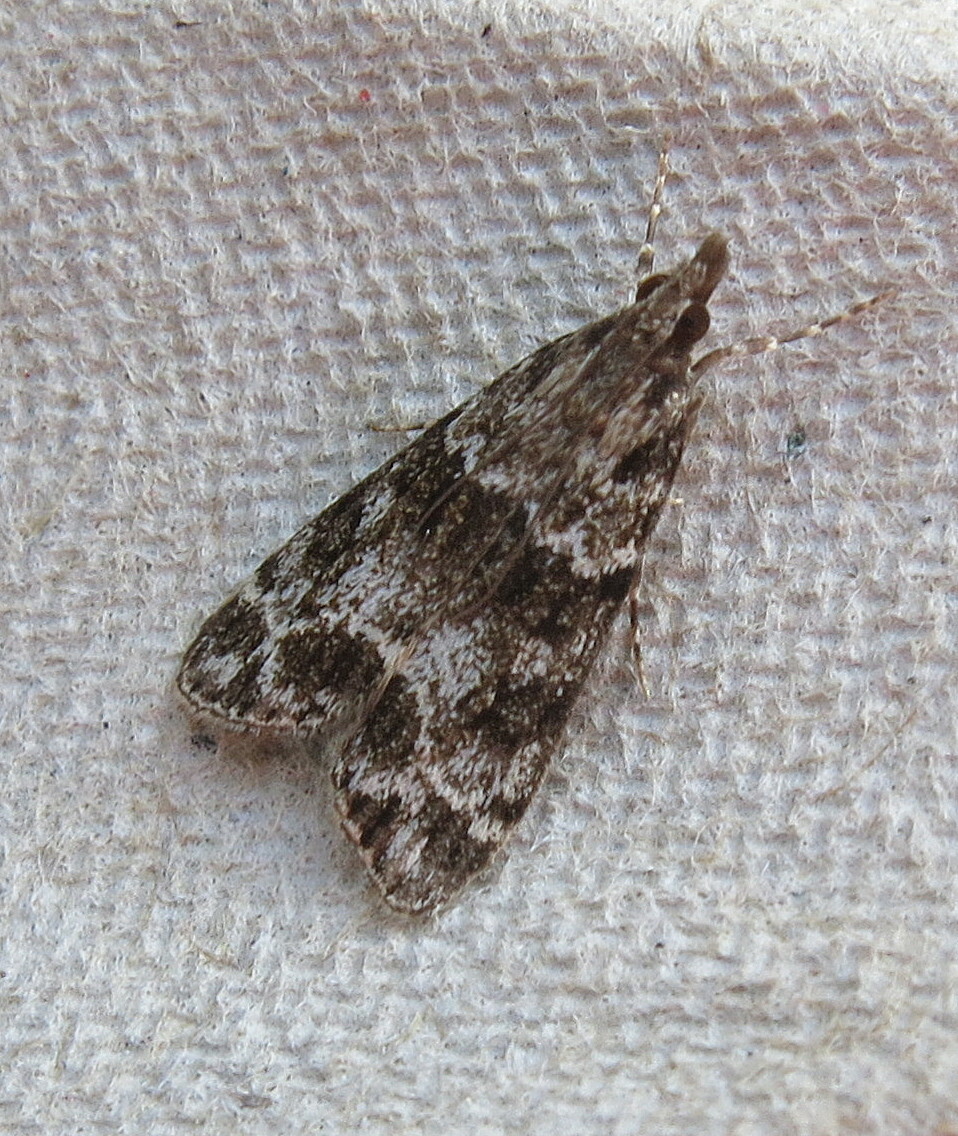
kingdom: Animalia
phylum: Arthropoda
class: Insecta
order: Lepidoptera
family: Crambidae
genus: Eudonia
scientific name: Eudonia mercurella
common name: Small grey
